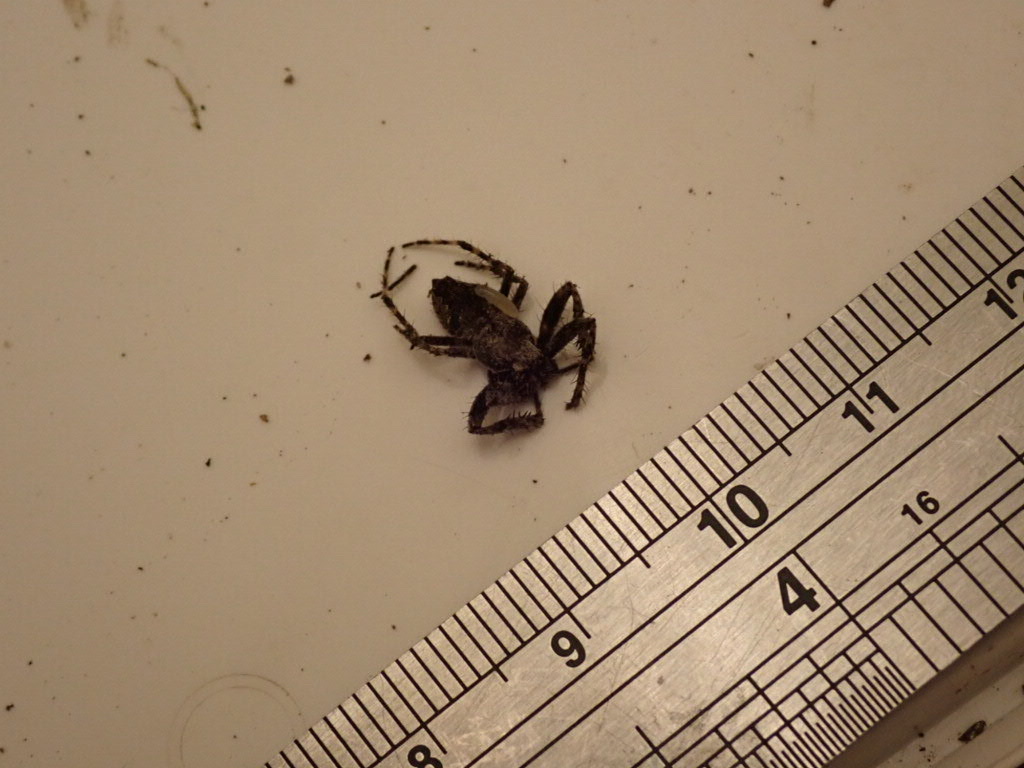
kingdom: Animalia
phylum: Arthropoda
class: Arachnida
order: Araneae
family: Araneidae
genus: Eriophora
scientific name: Eriophora pustulosa
